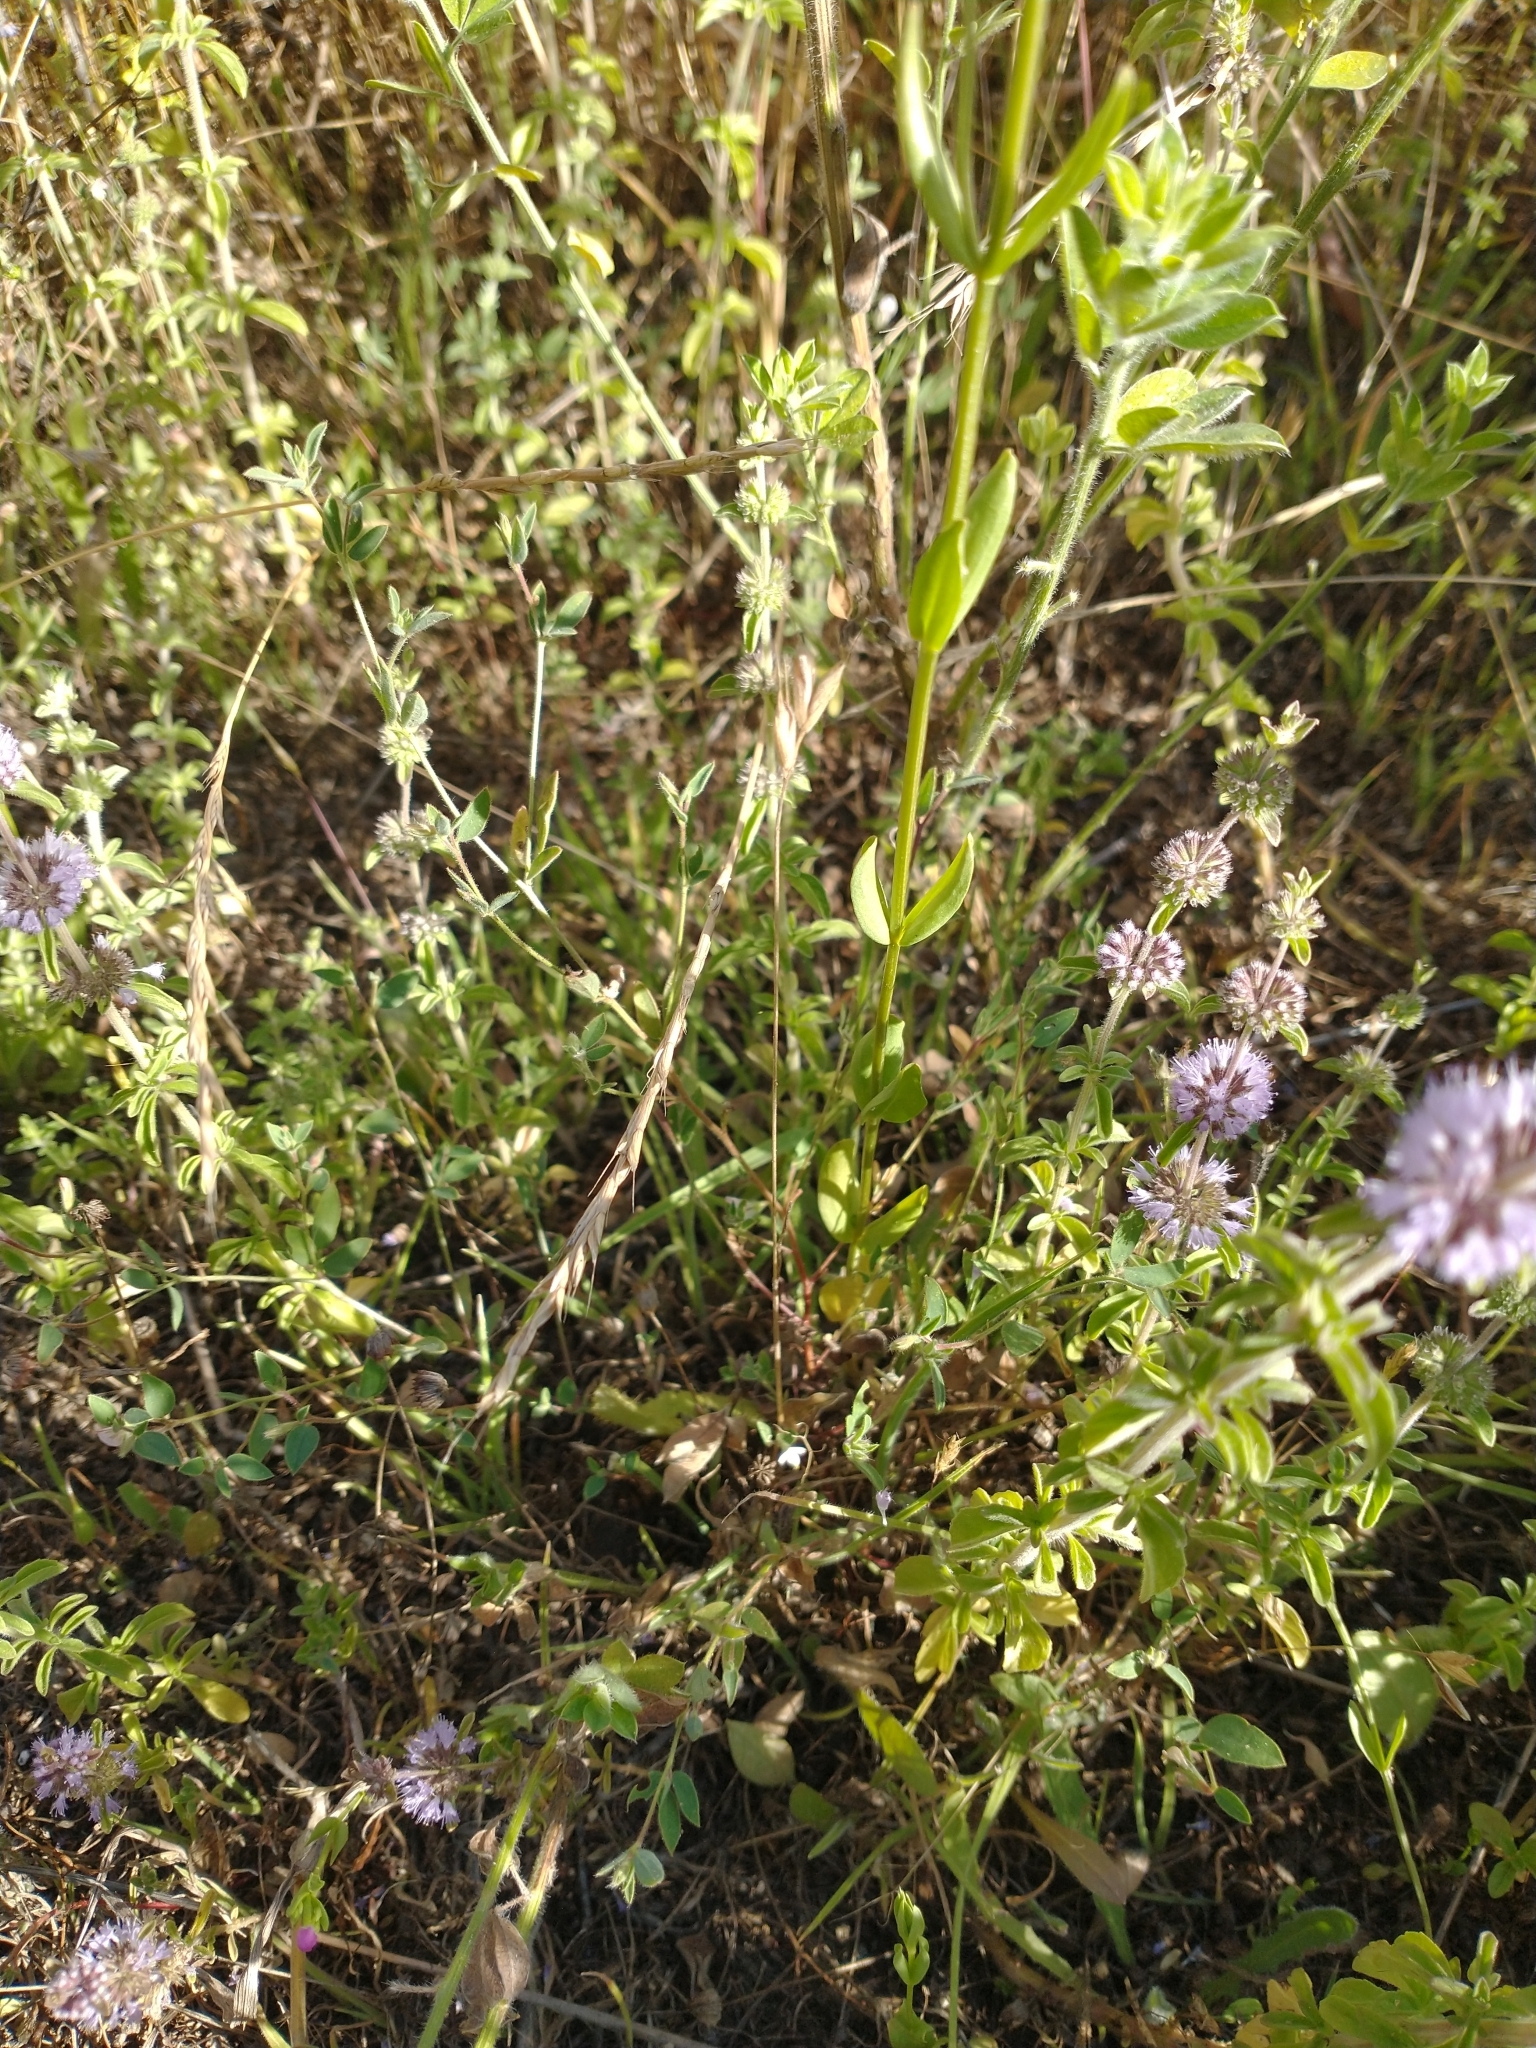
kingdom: Plantae
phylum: Tracheophyta
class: Magnoliopsida
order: Lamiales
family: Lamiaceae
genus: Mentha
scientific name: Mentha pulegium
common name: Pennyroyal
